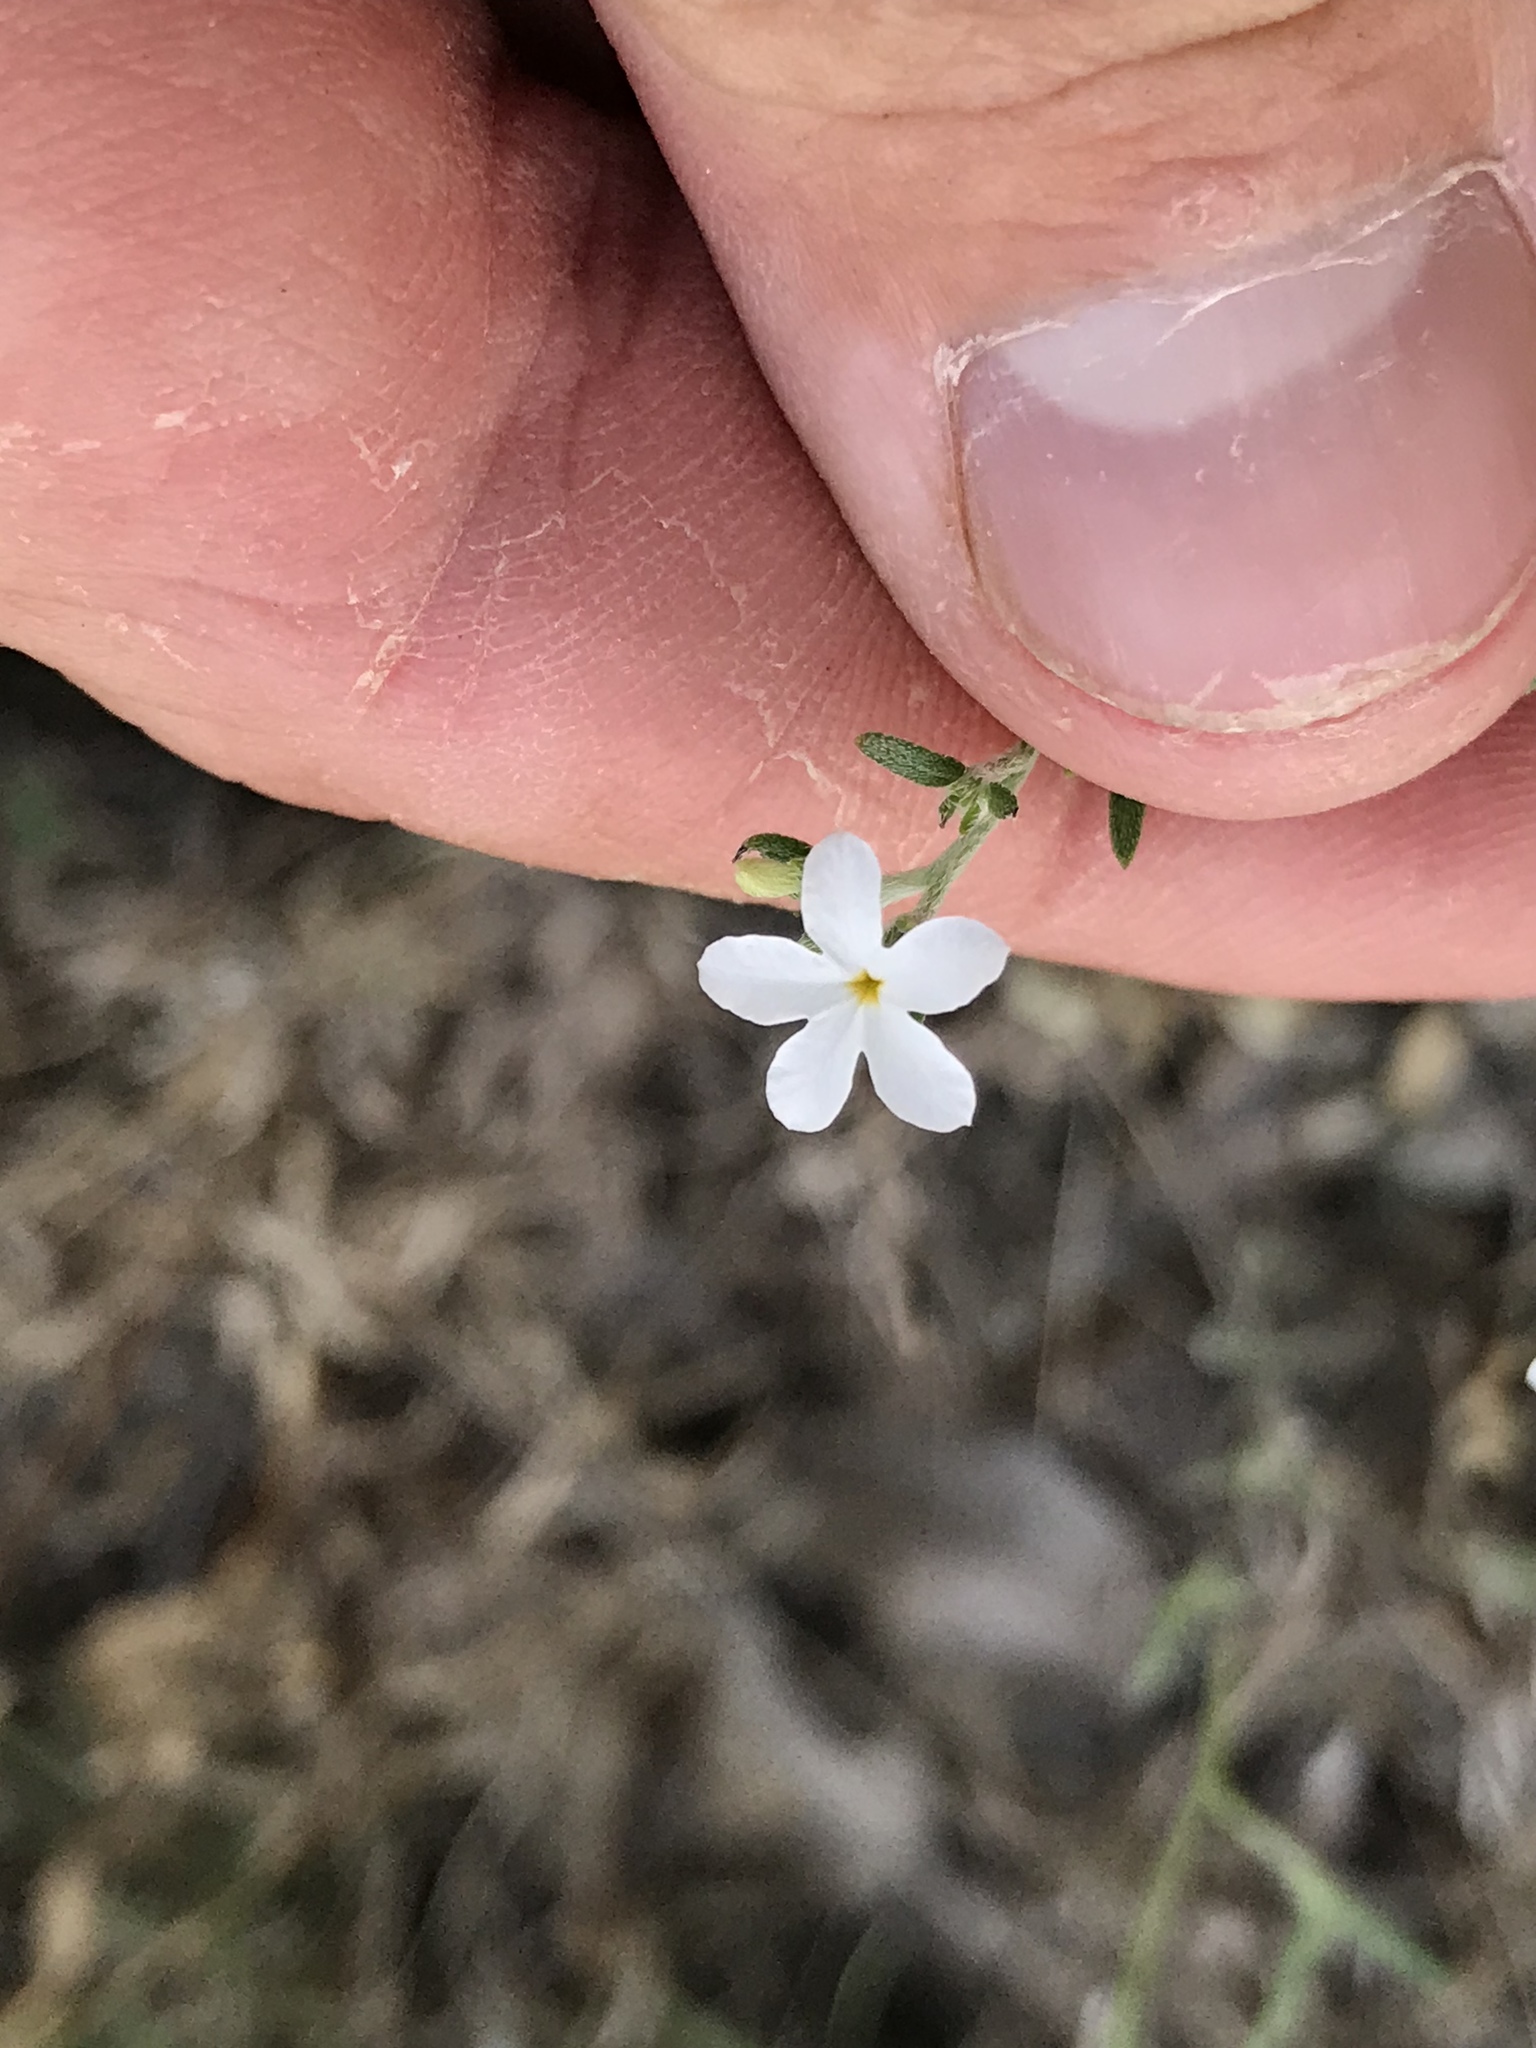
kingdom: Plantae
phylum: Tracheophyta
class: Magnoliopsida
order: Boraginales
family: Heliotropiaceae
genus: Euploca
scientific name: Euploca tenella
